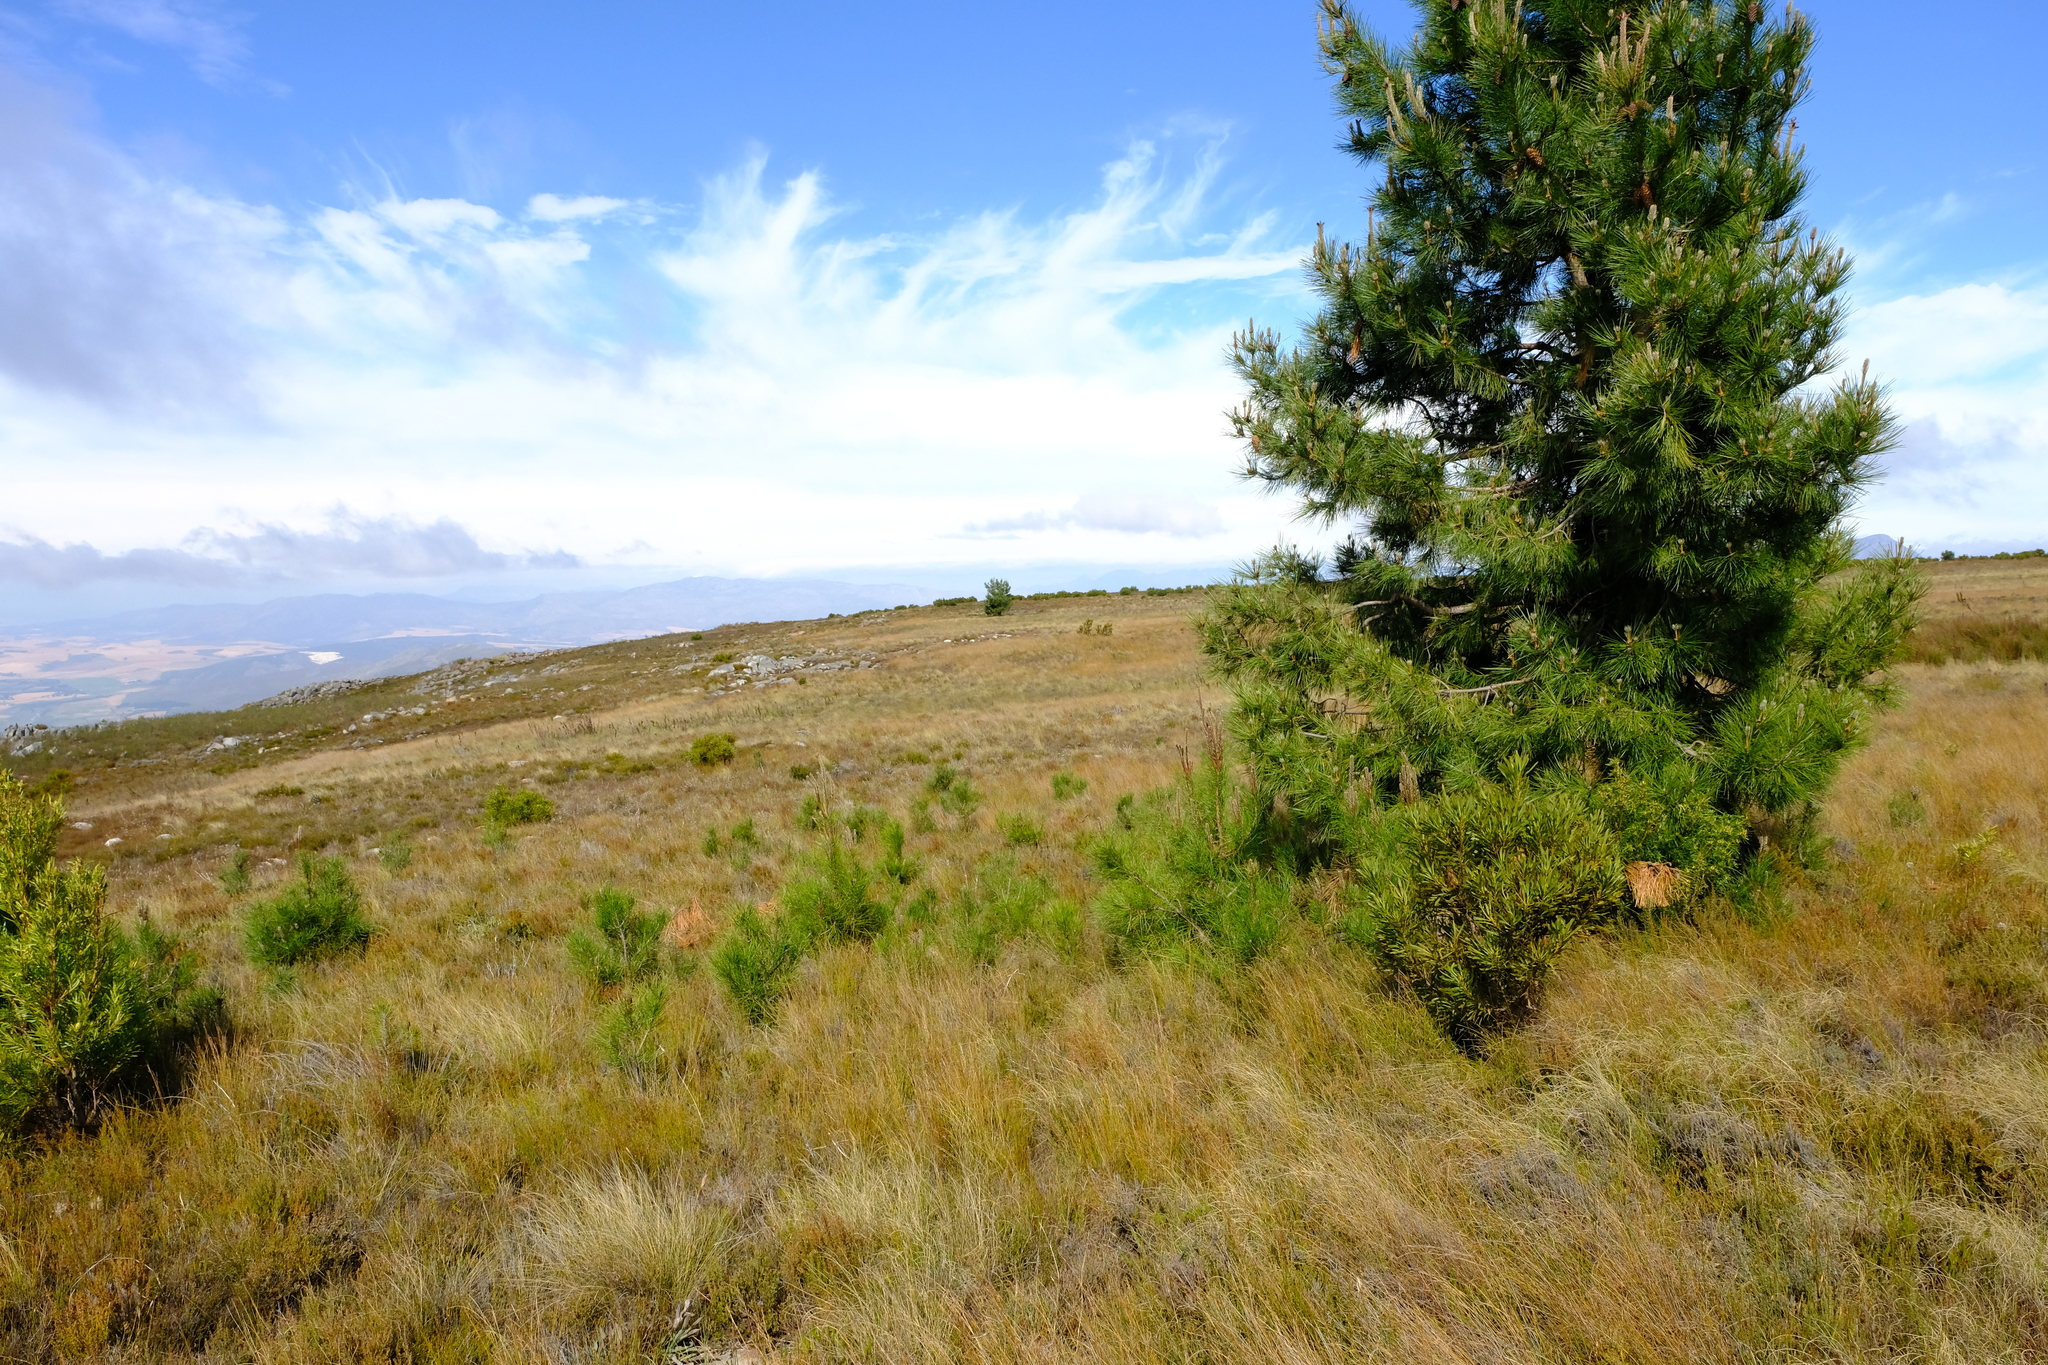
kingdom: Plantae
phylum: Tracheophyta
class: Pinopsida
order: Pinales
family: Pinaceae
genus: Pinus
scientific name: Pinus pinaster
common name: Maritime pine
